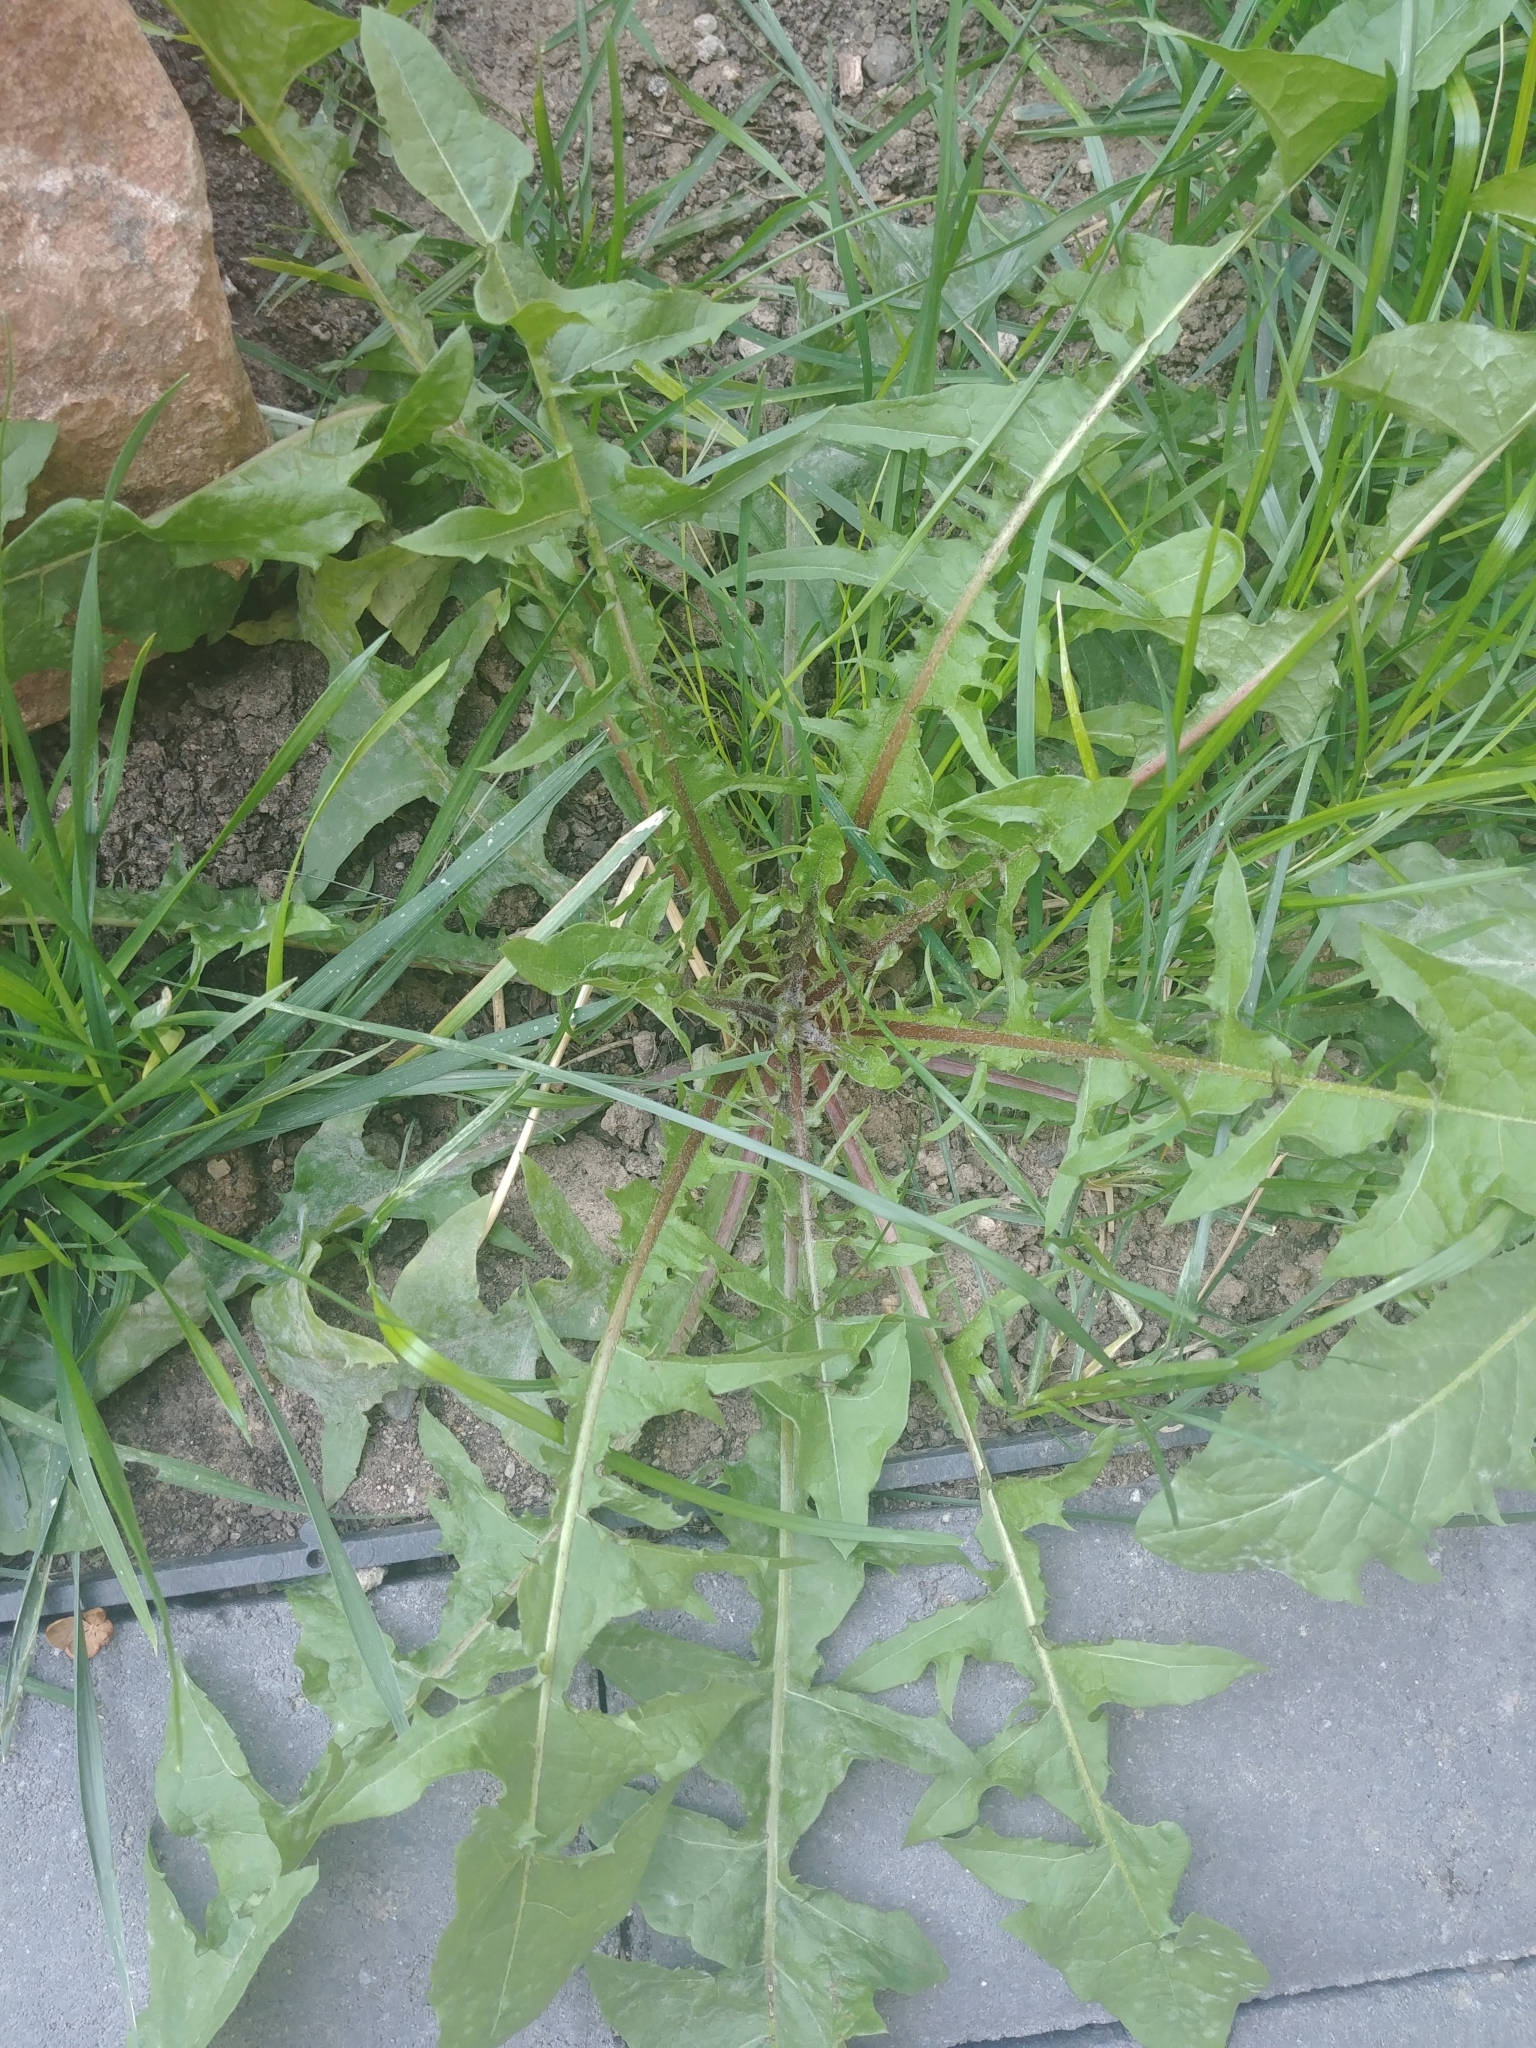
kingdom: Plantae
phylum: Tracheophyta
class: Magnoliopsida
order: Asterales
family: Asteraceae
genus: Taraxacum
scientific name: Taraxacum officinale
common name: Common dandelion
